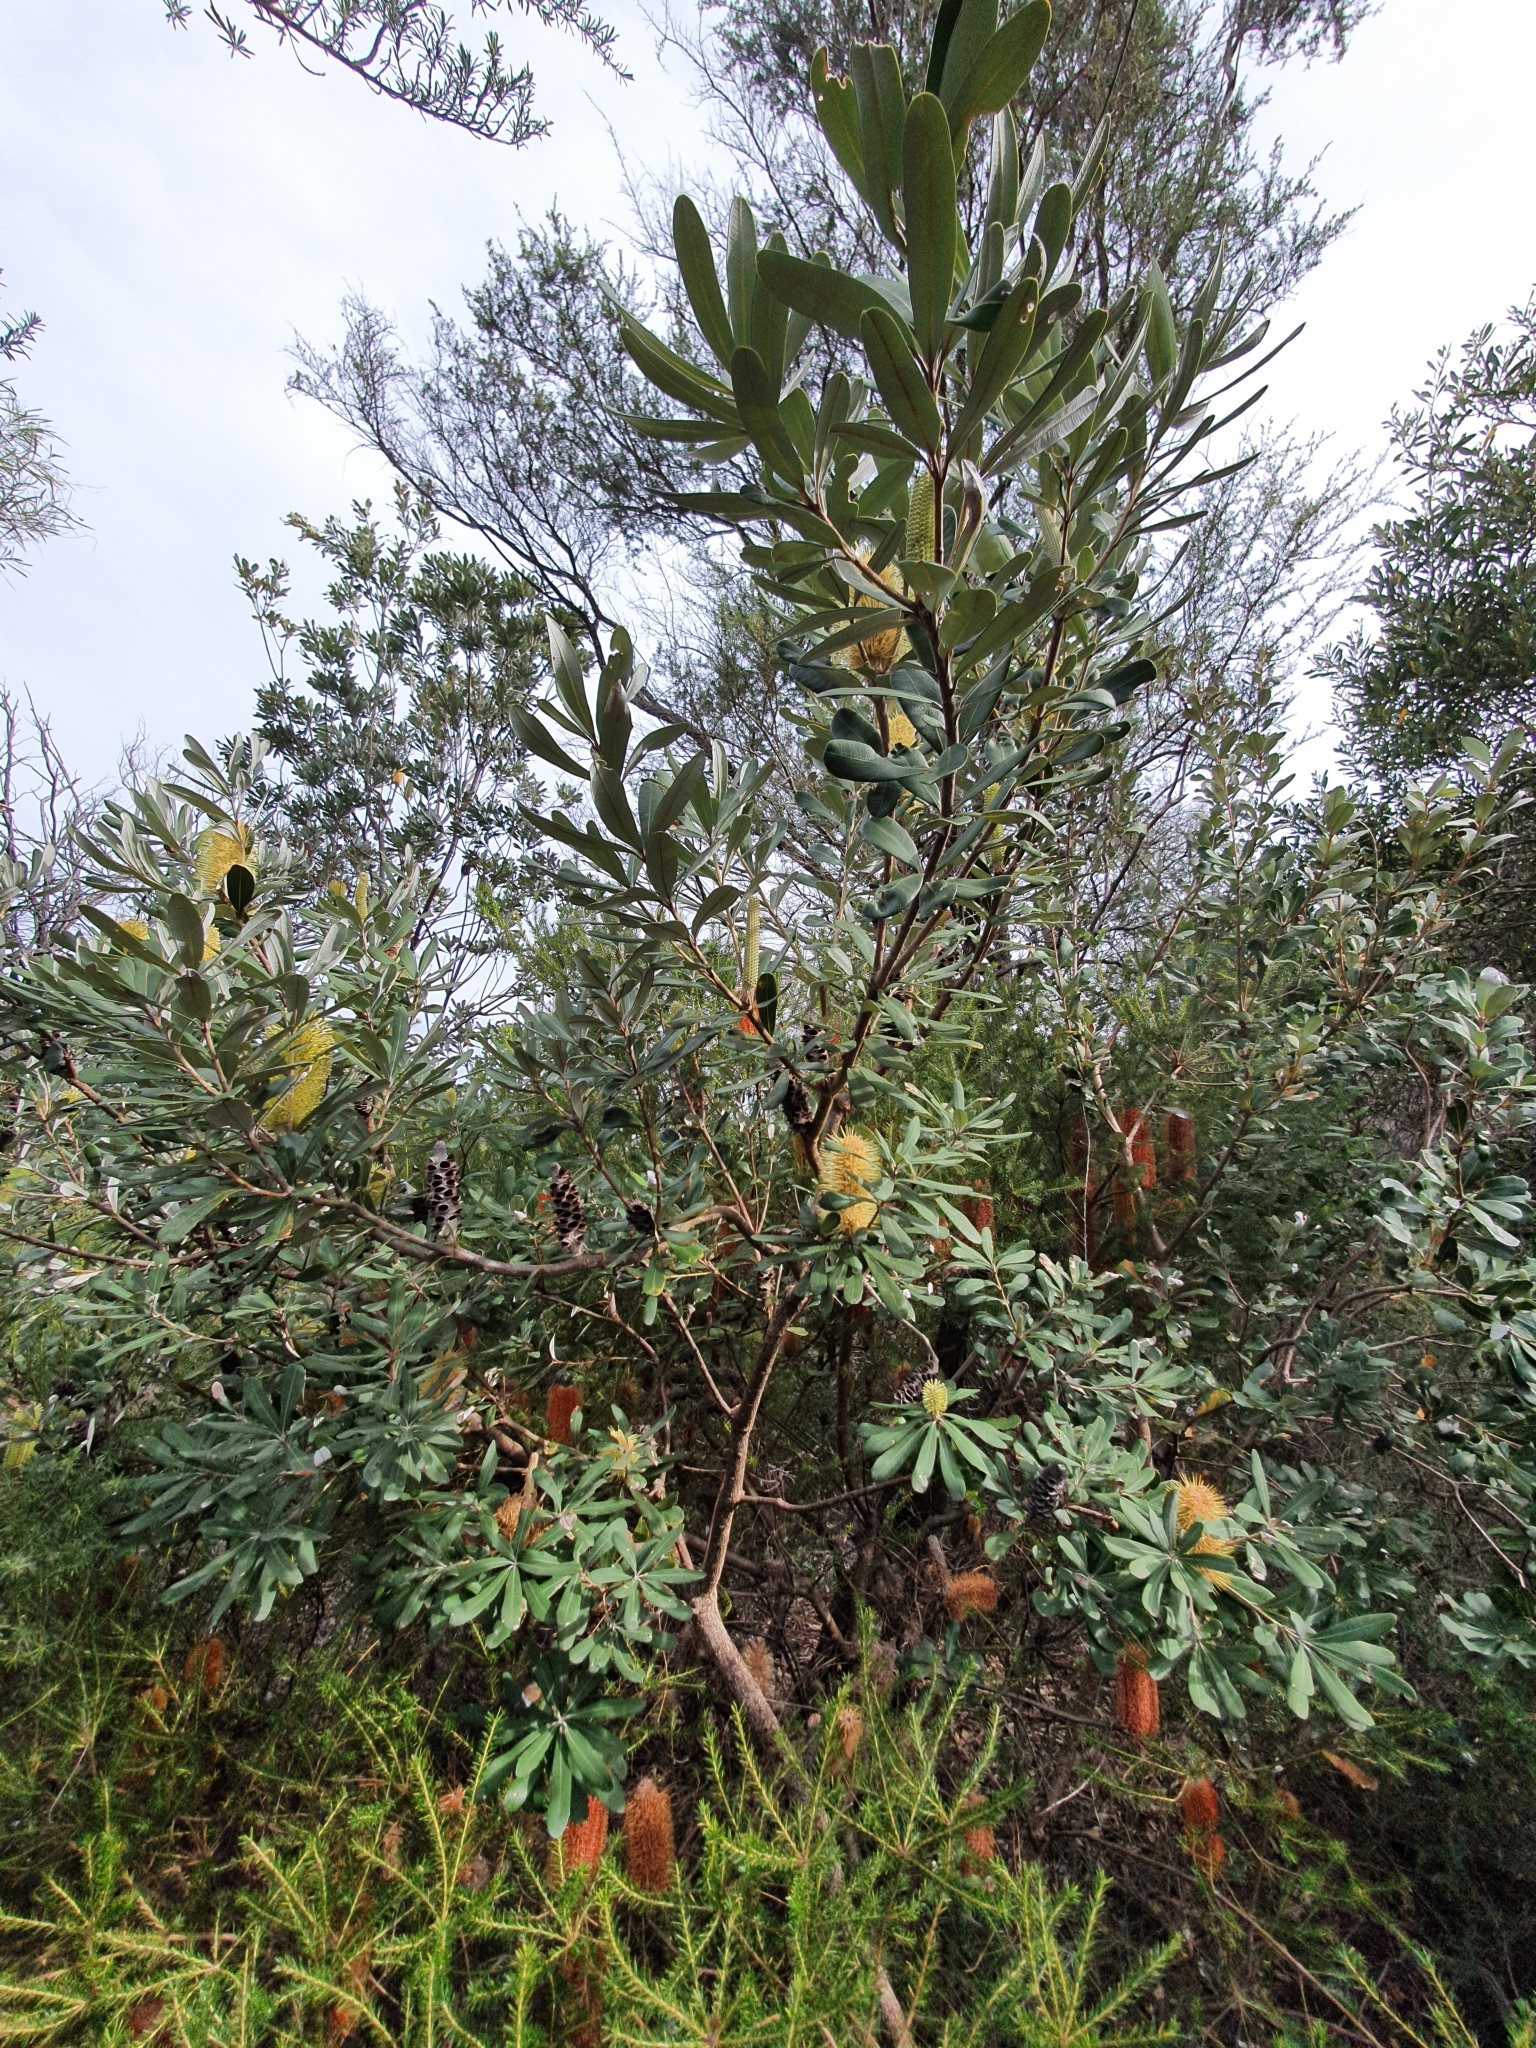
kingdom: Plantae
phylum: Tracheophyta
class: Magnoliopsida
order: Proteales
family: Proteaceae
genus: Banksia
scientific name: Banksia integrifolia
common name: White-honeysuckle
